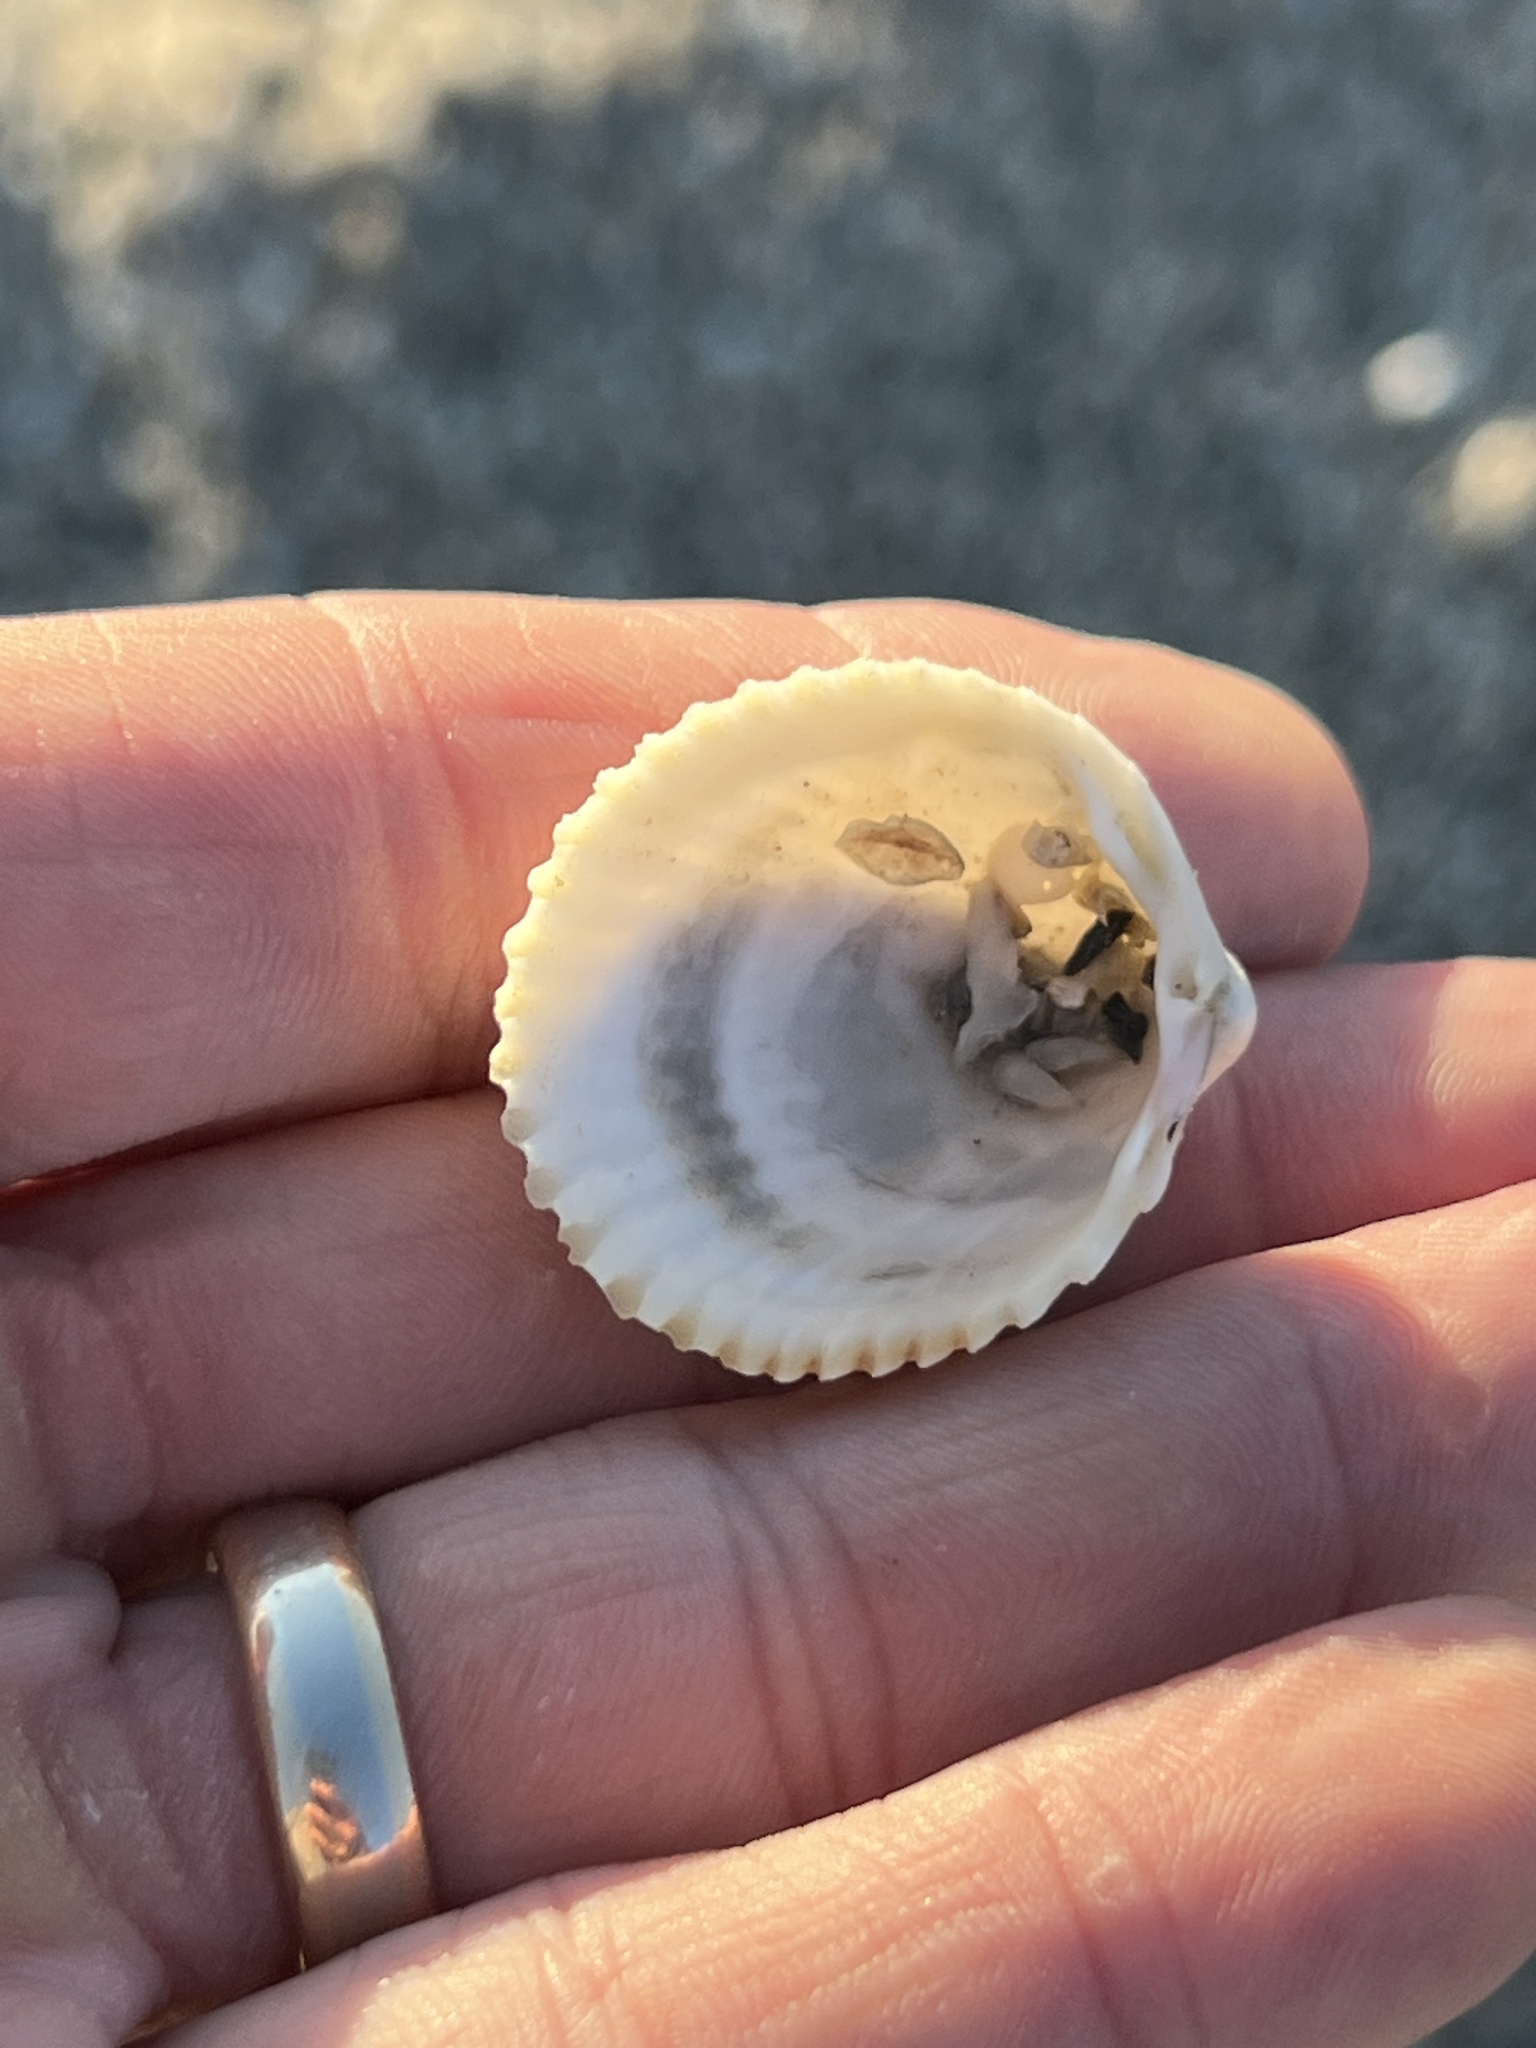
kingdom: Animalia
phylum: Mollusca
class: Bivalvia
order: Cardiida
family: Cardiidae
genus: Dallocardia
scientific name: Dallocardia muricata
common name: Yellow pricklycockle
